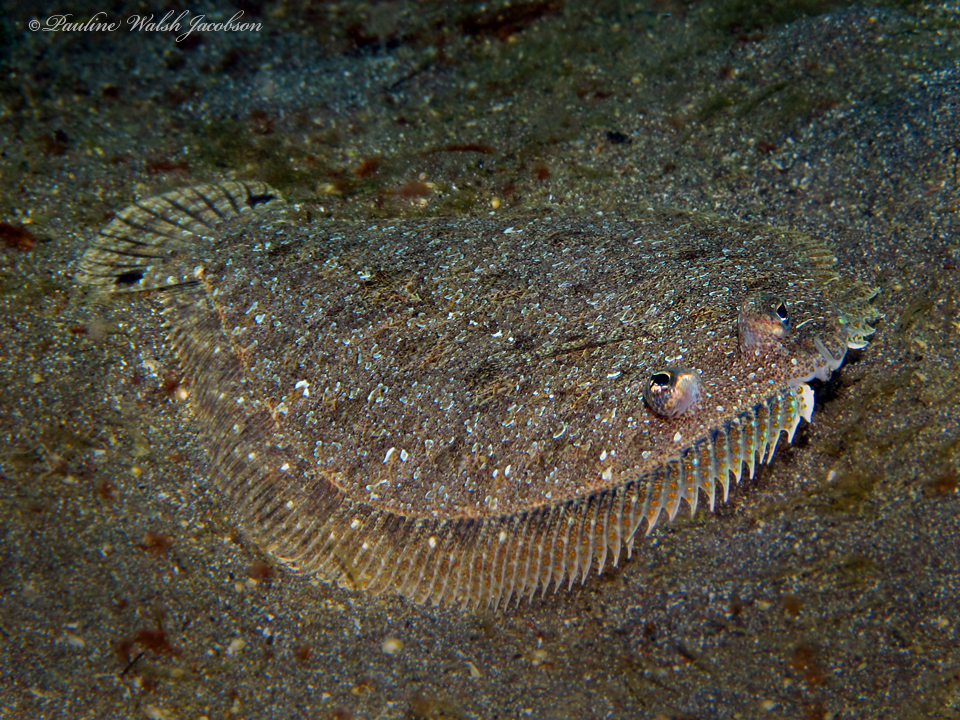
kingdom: Animalia
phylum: Chordata
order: Pleuronectiformes
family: Bothidae
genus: Engyprosopon
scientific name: Engyprosopon grandisquama
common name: Largescale flounder
